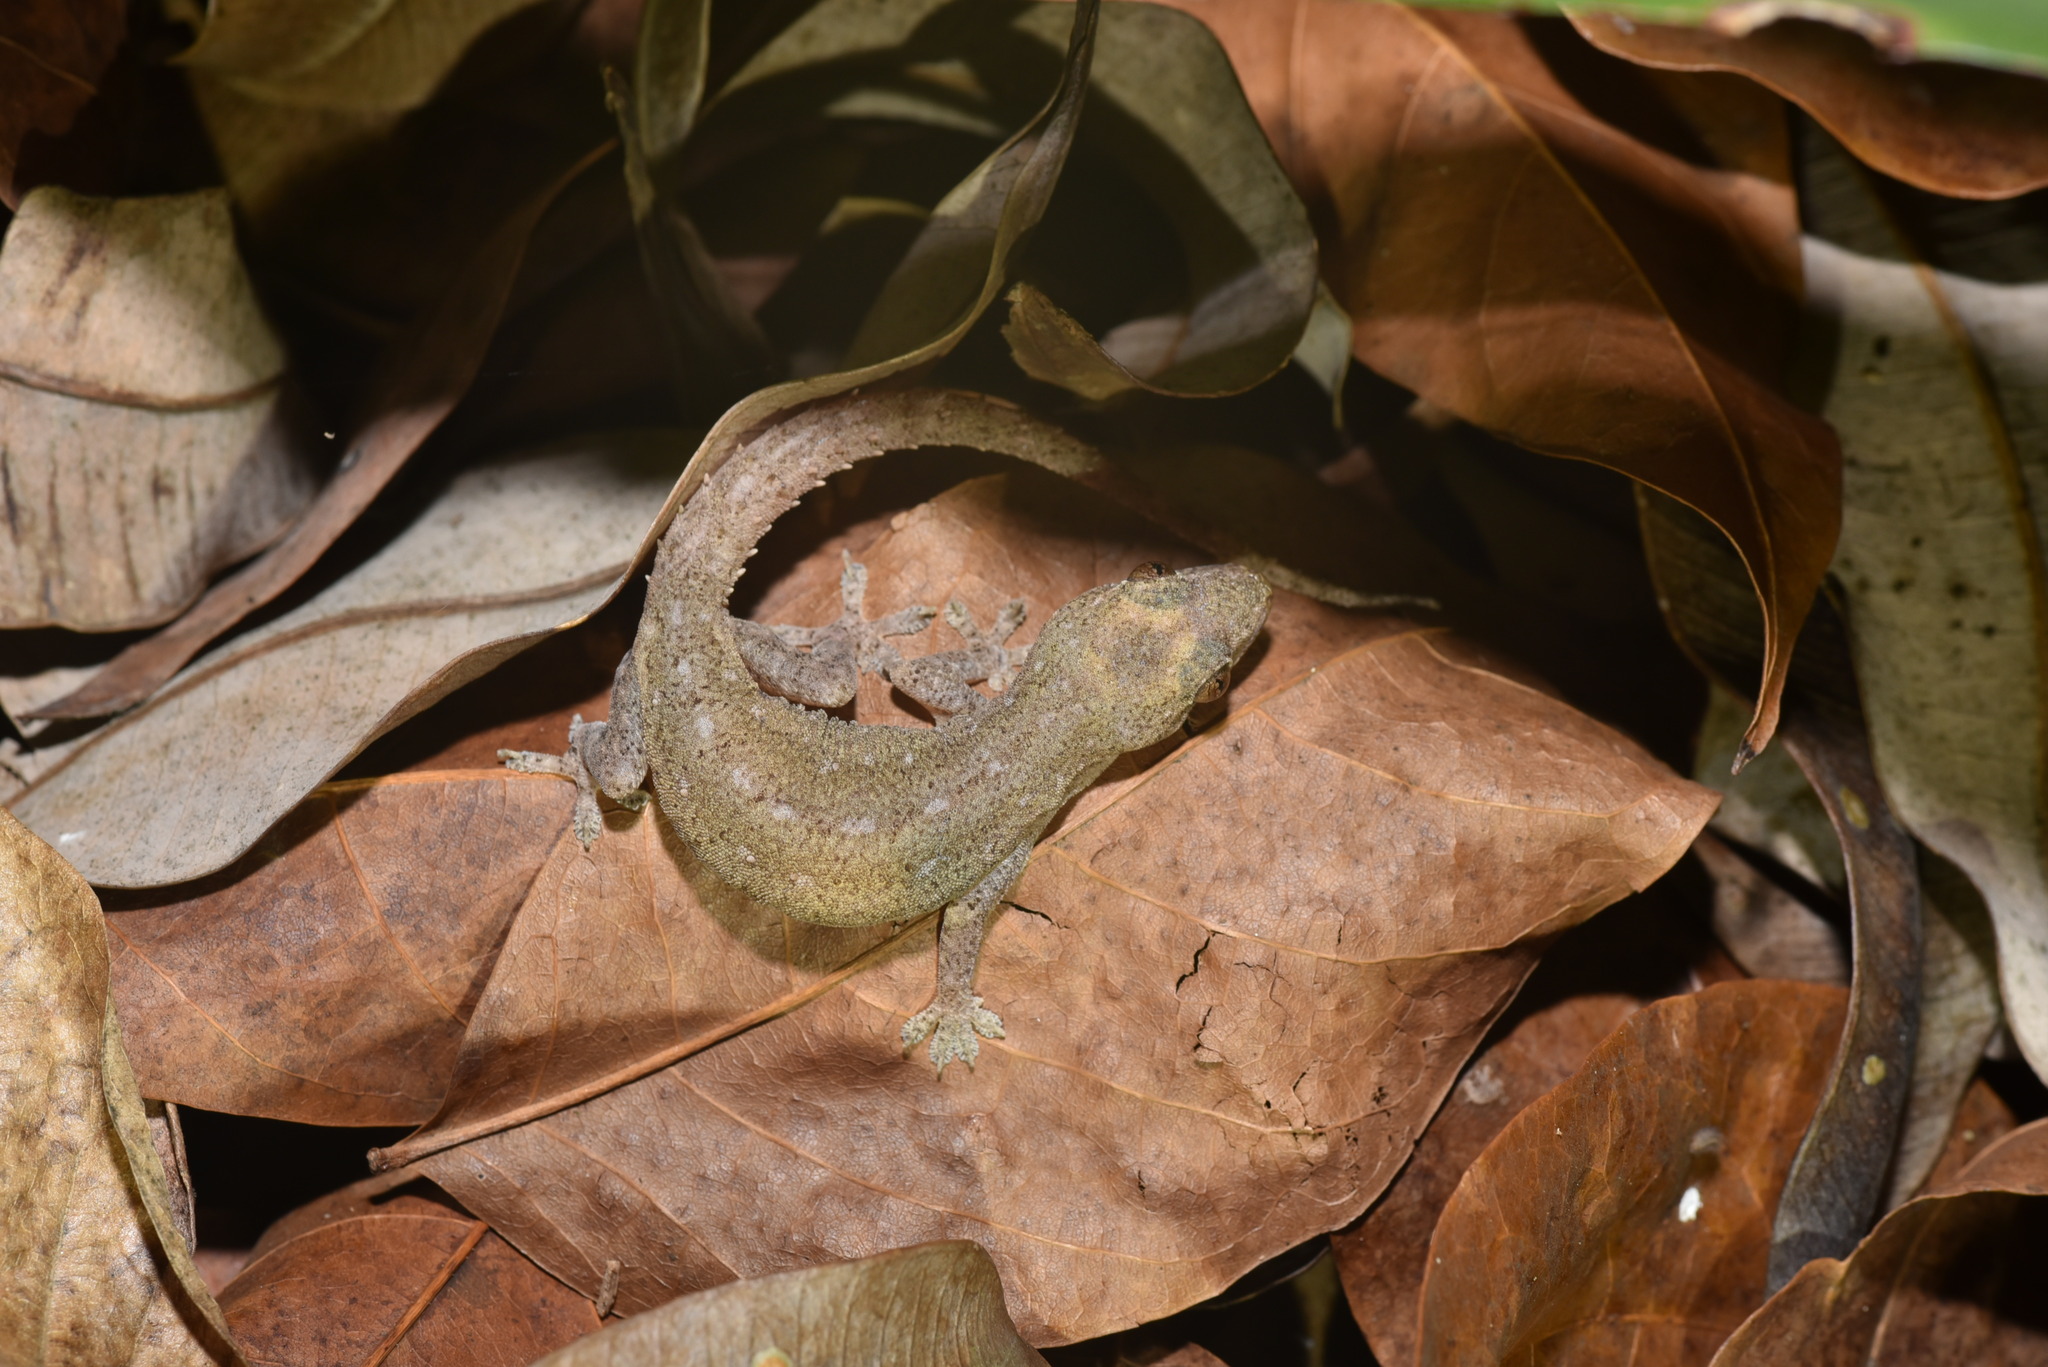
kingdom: Animalia
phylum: Chordata
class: Squamata
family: Gekkonidae
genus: Hemidactylus
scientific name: Hemidactylus frenatus
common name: Common house gecko
